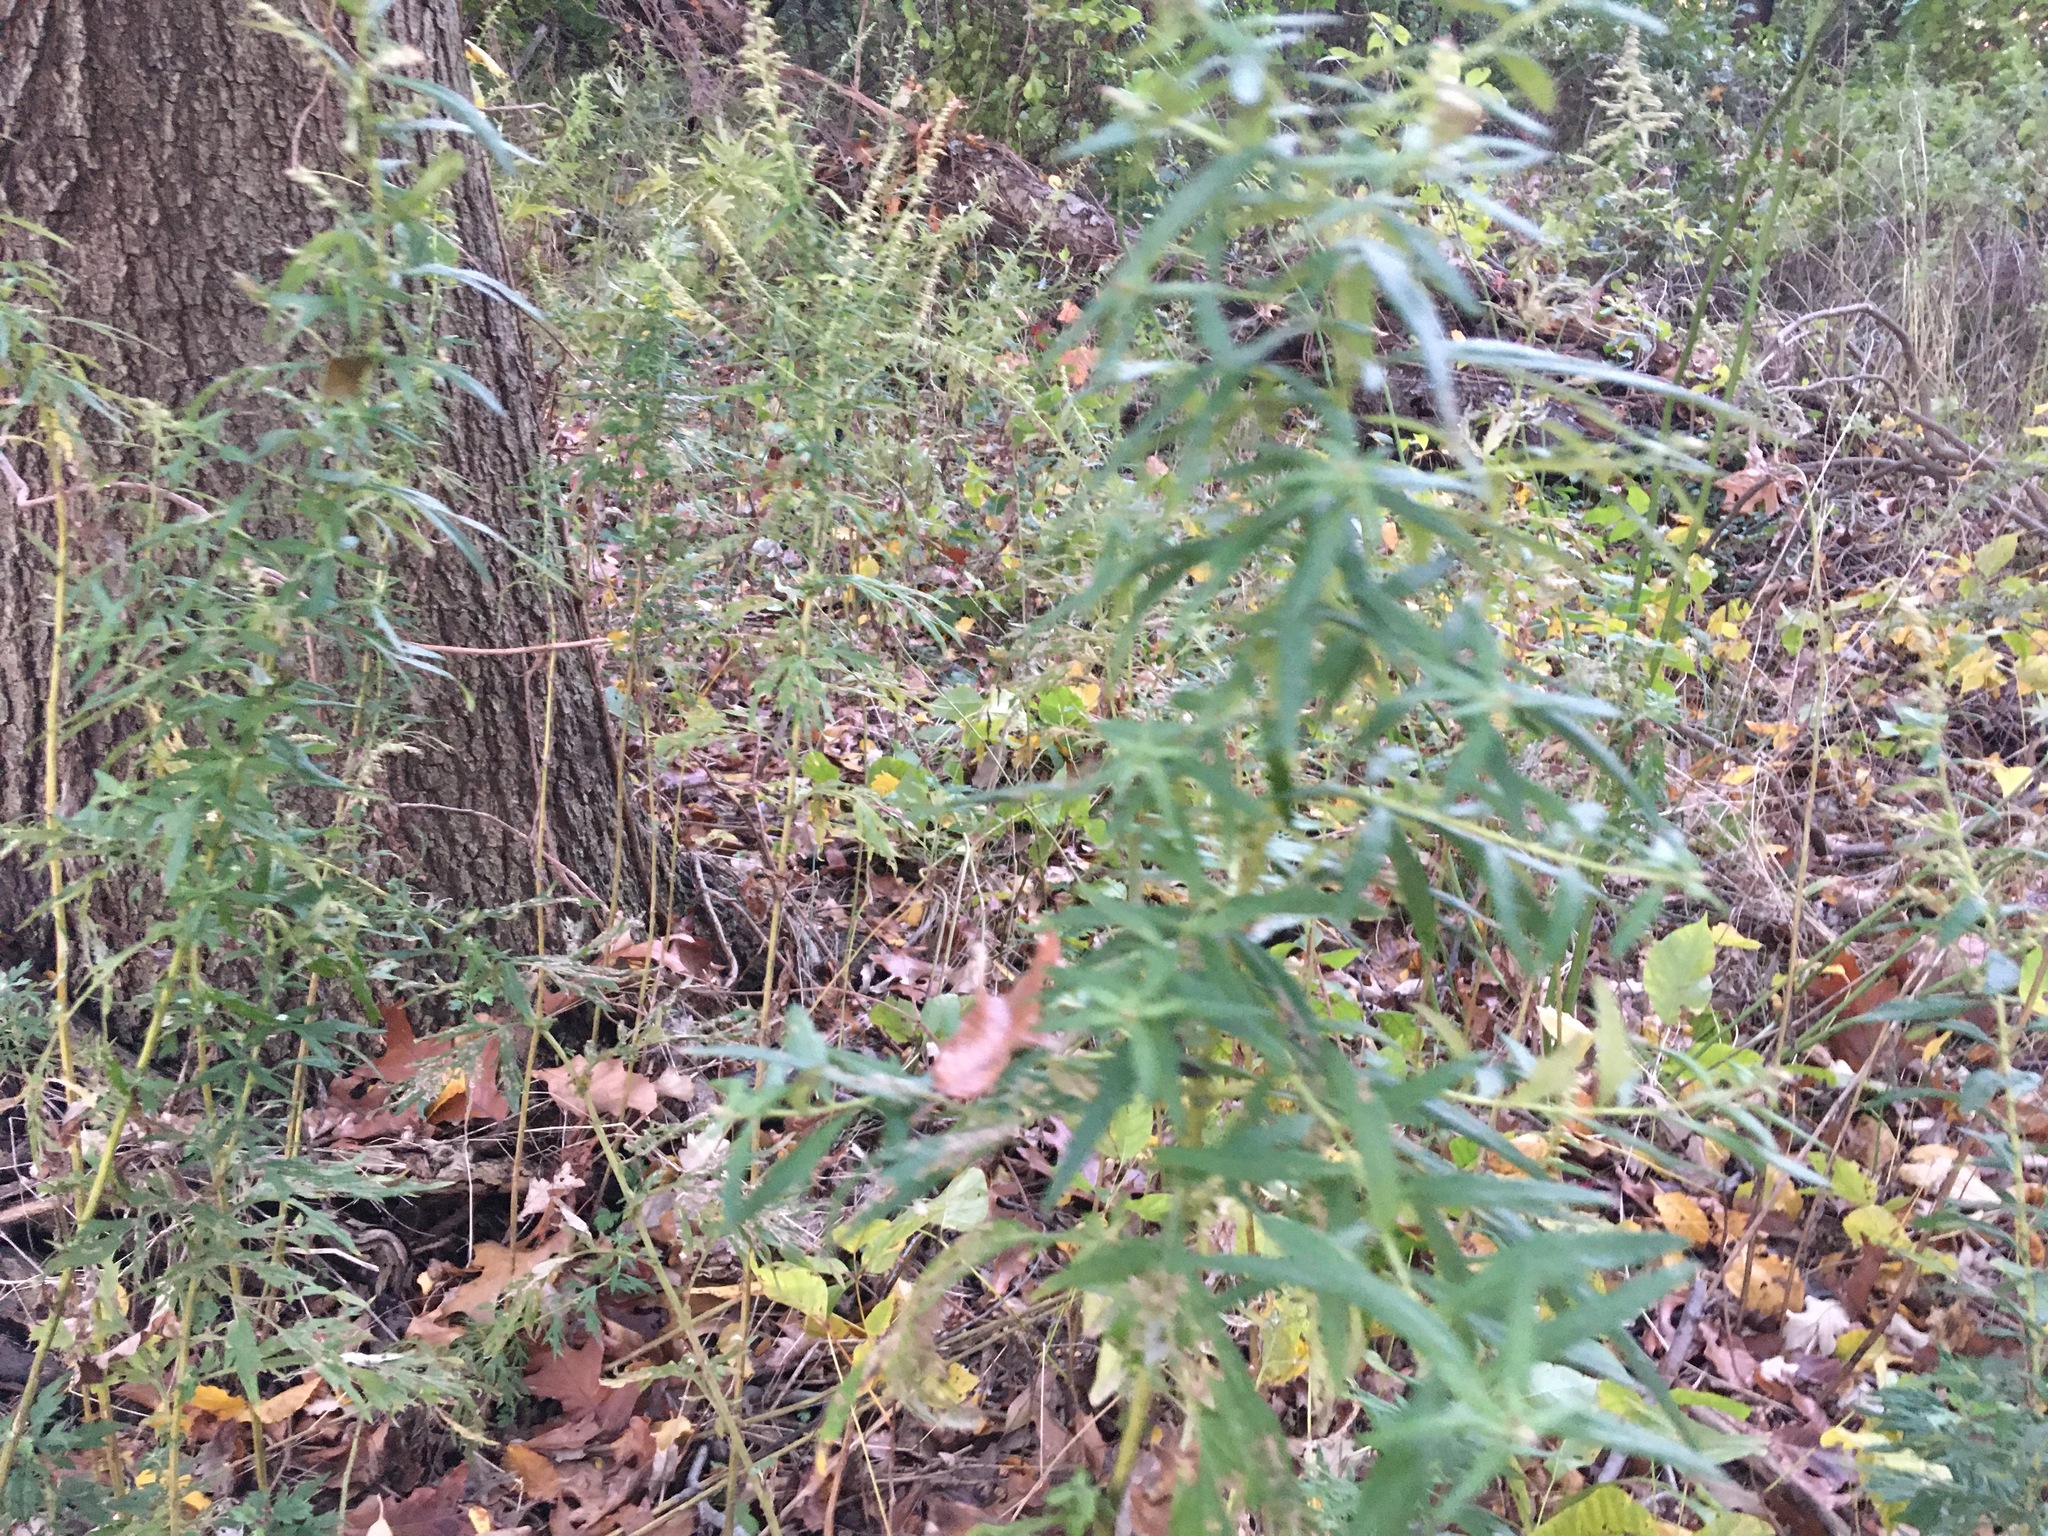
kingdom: Plantae
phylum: Tracheophyta
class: Magnoliopsida
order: Asterales
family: Asteraceae
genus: Artemisia
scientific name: Artemisia vulgaris
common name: Mugwort
